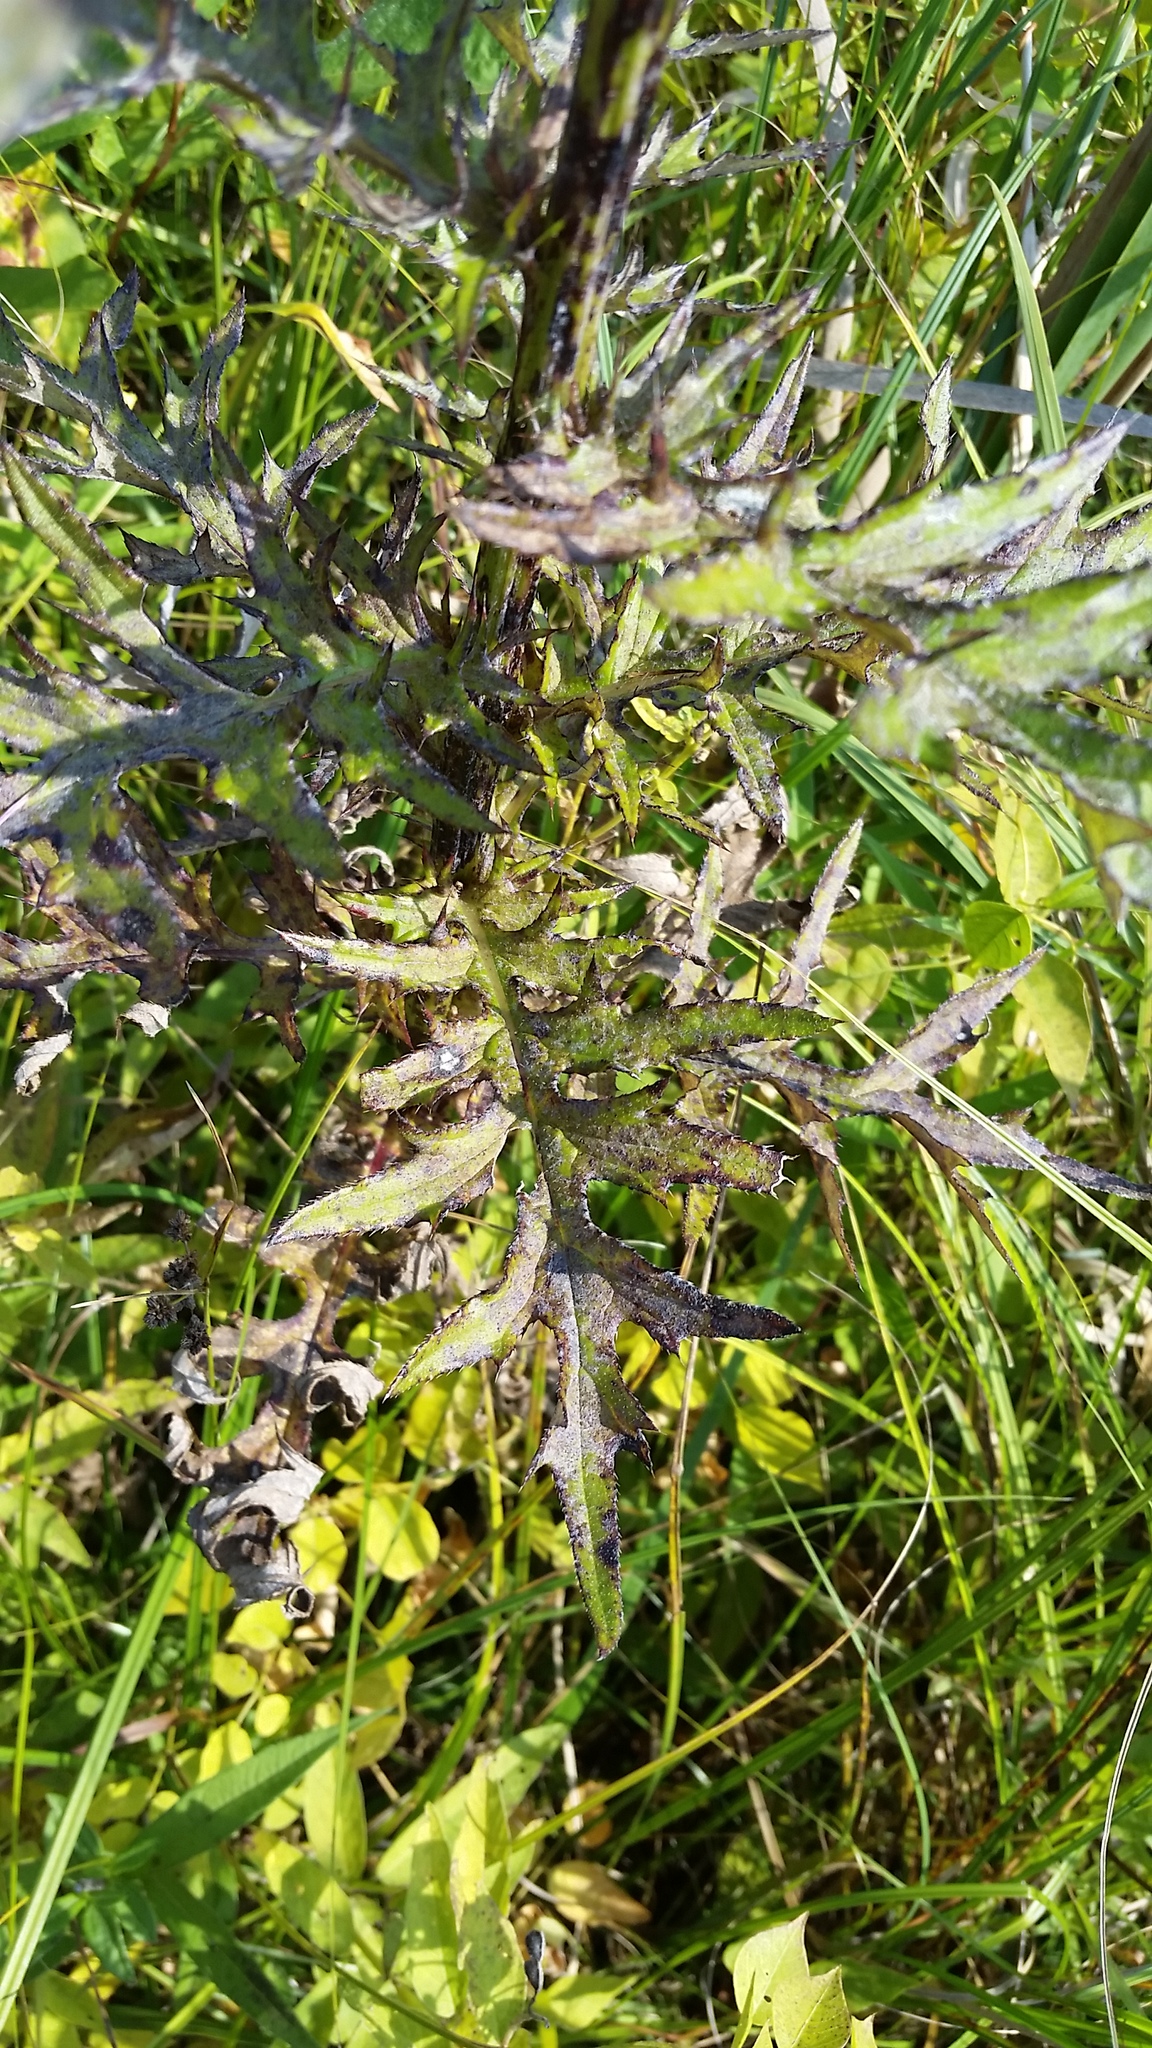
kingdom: Plantae
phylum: Tracheophyta
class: Magnoliopsida
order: Asterales
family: Asteraceae
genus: Cirsium
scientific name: Cirsium muticum
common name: Dunce-nettle
